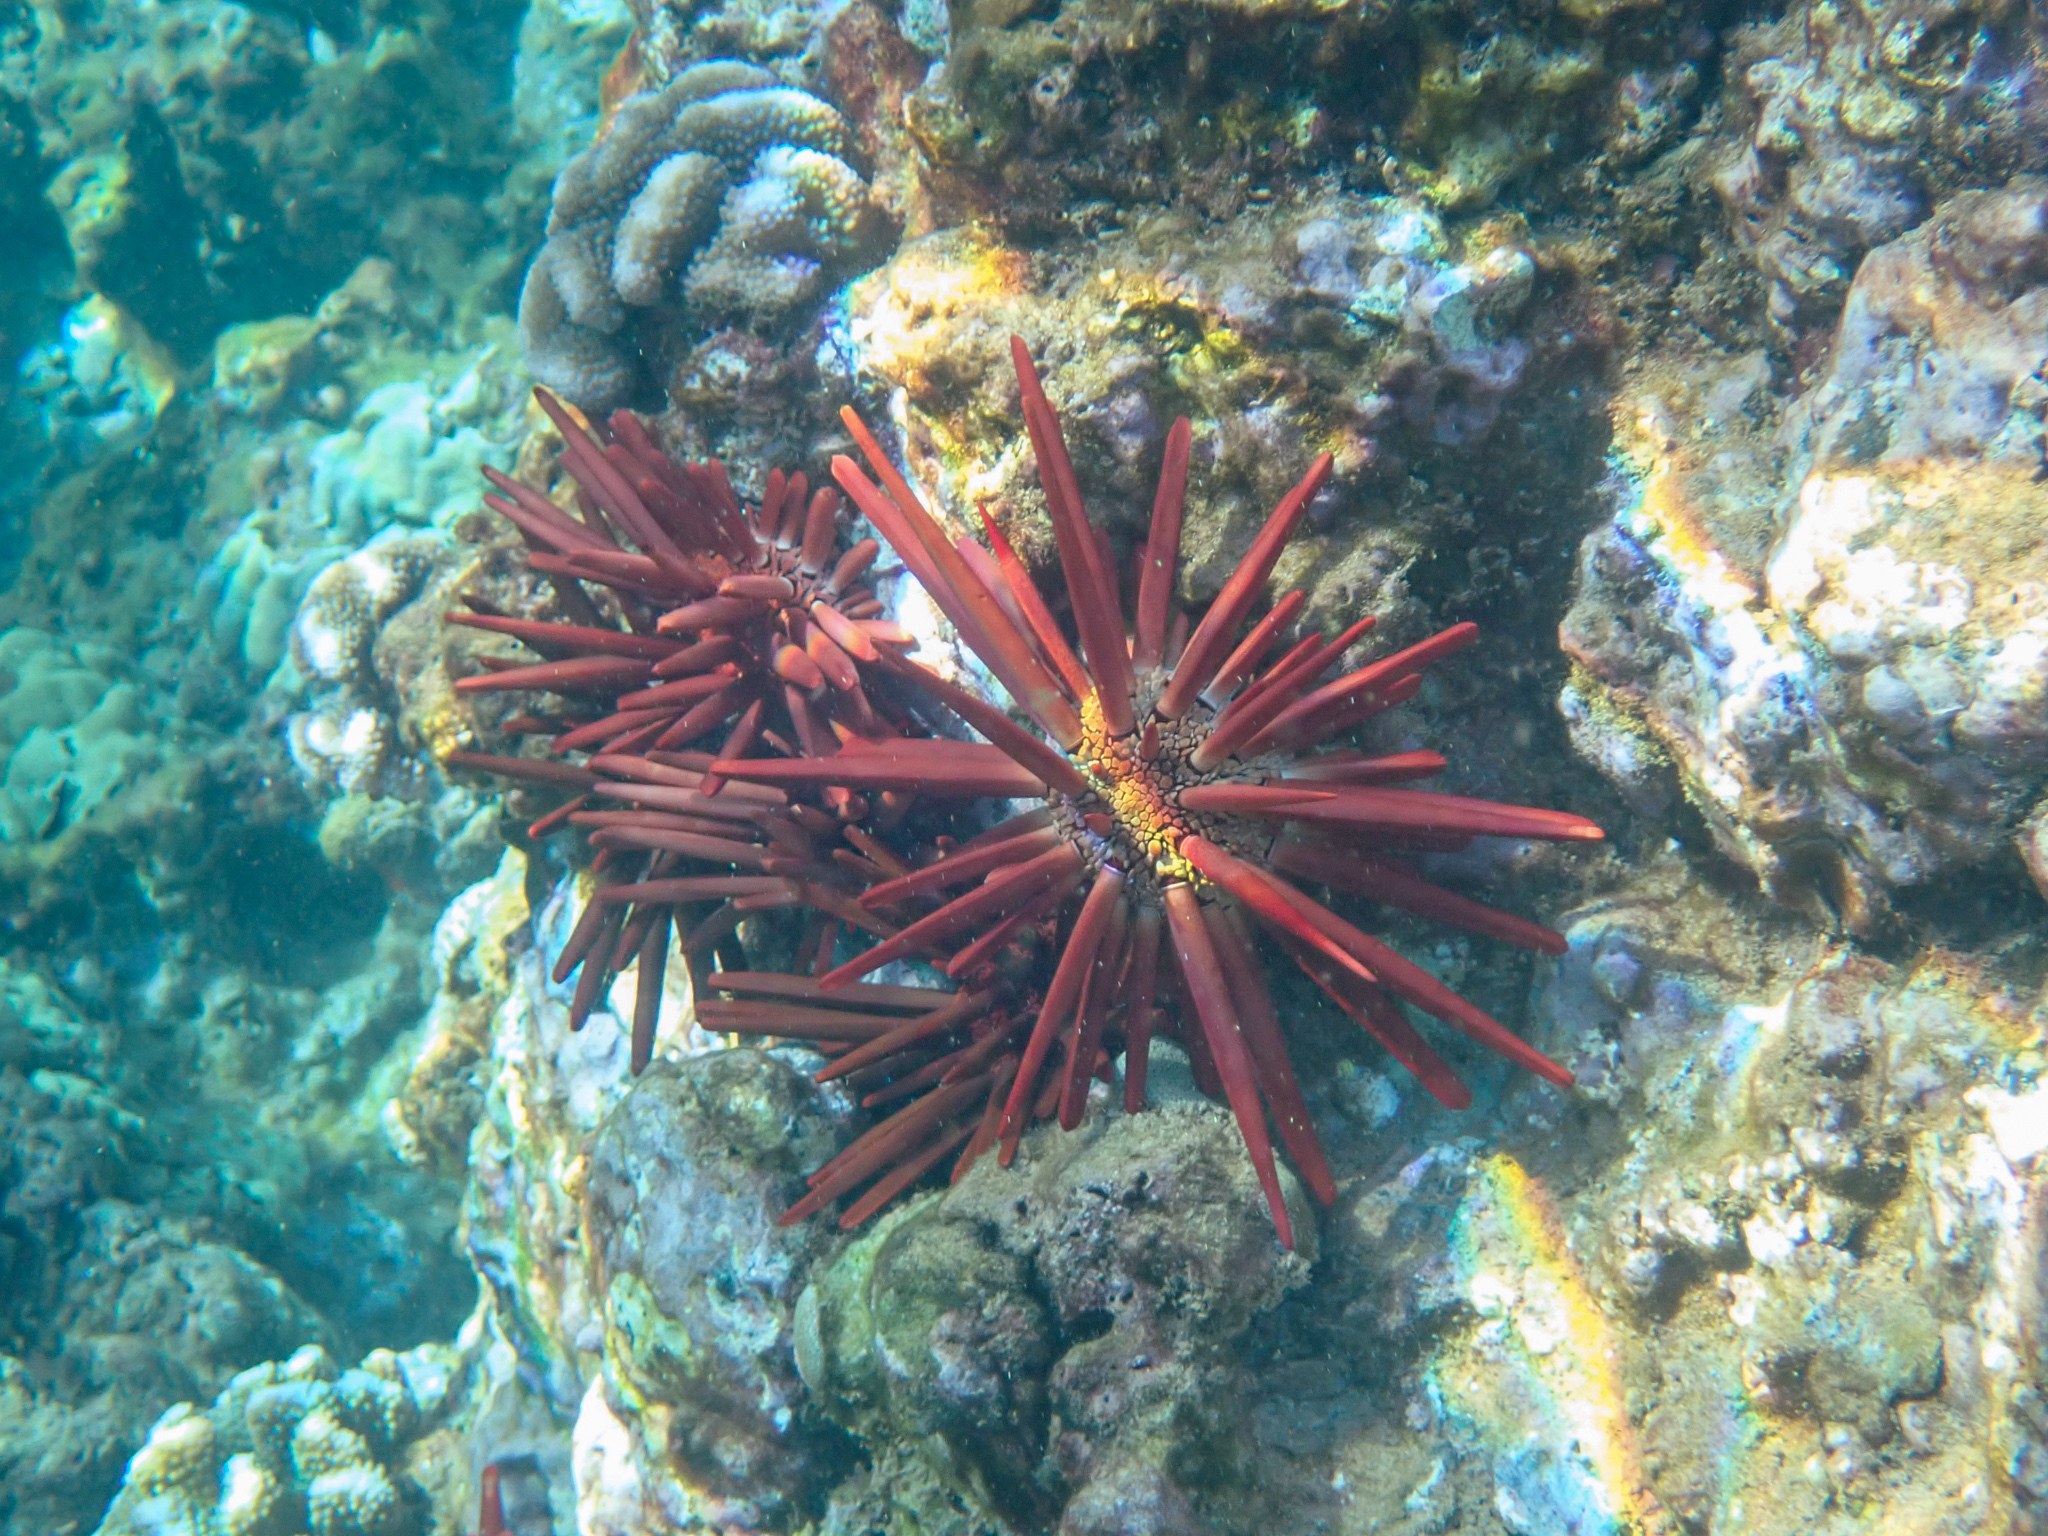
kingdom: Animalia
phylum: Echinodermata
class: Echinoidea
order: Camarodonta
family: Echinometridae
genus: Heterocentrotus
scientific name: Heterocentrotus mamillatus
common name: Slate pencil urchin
